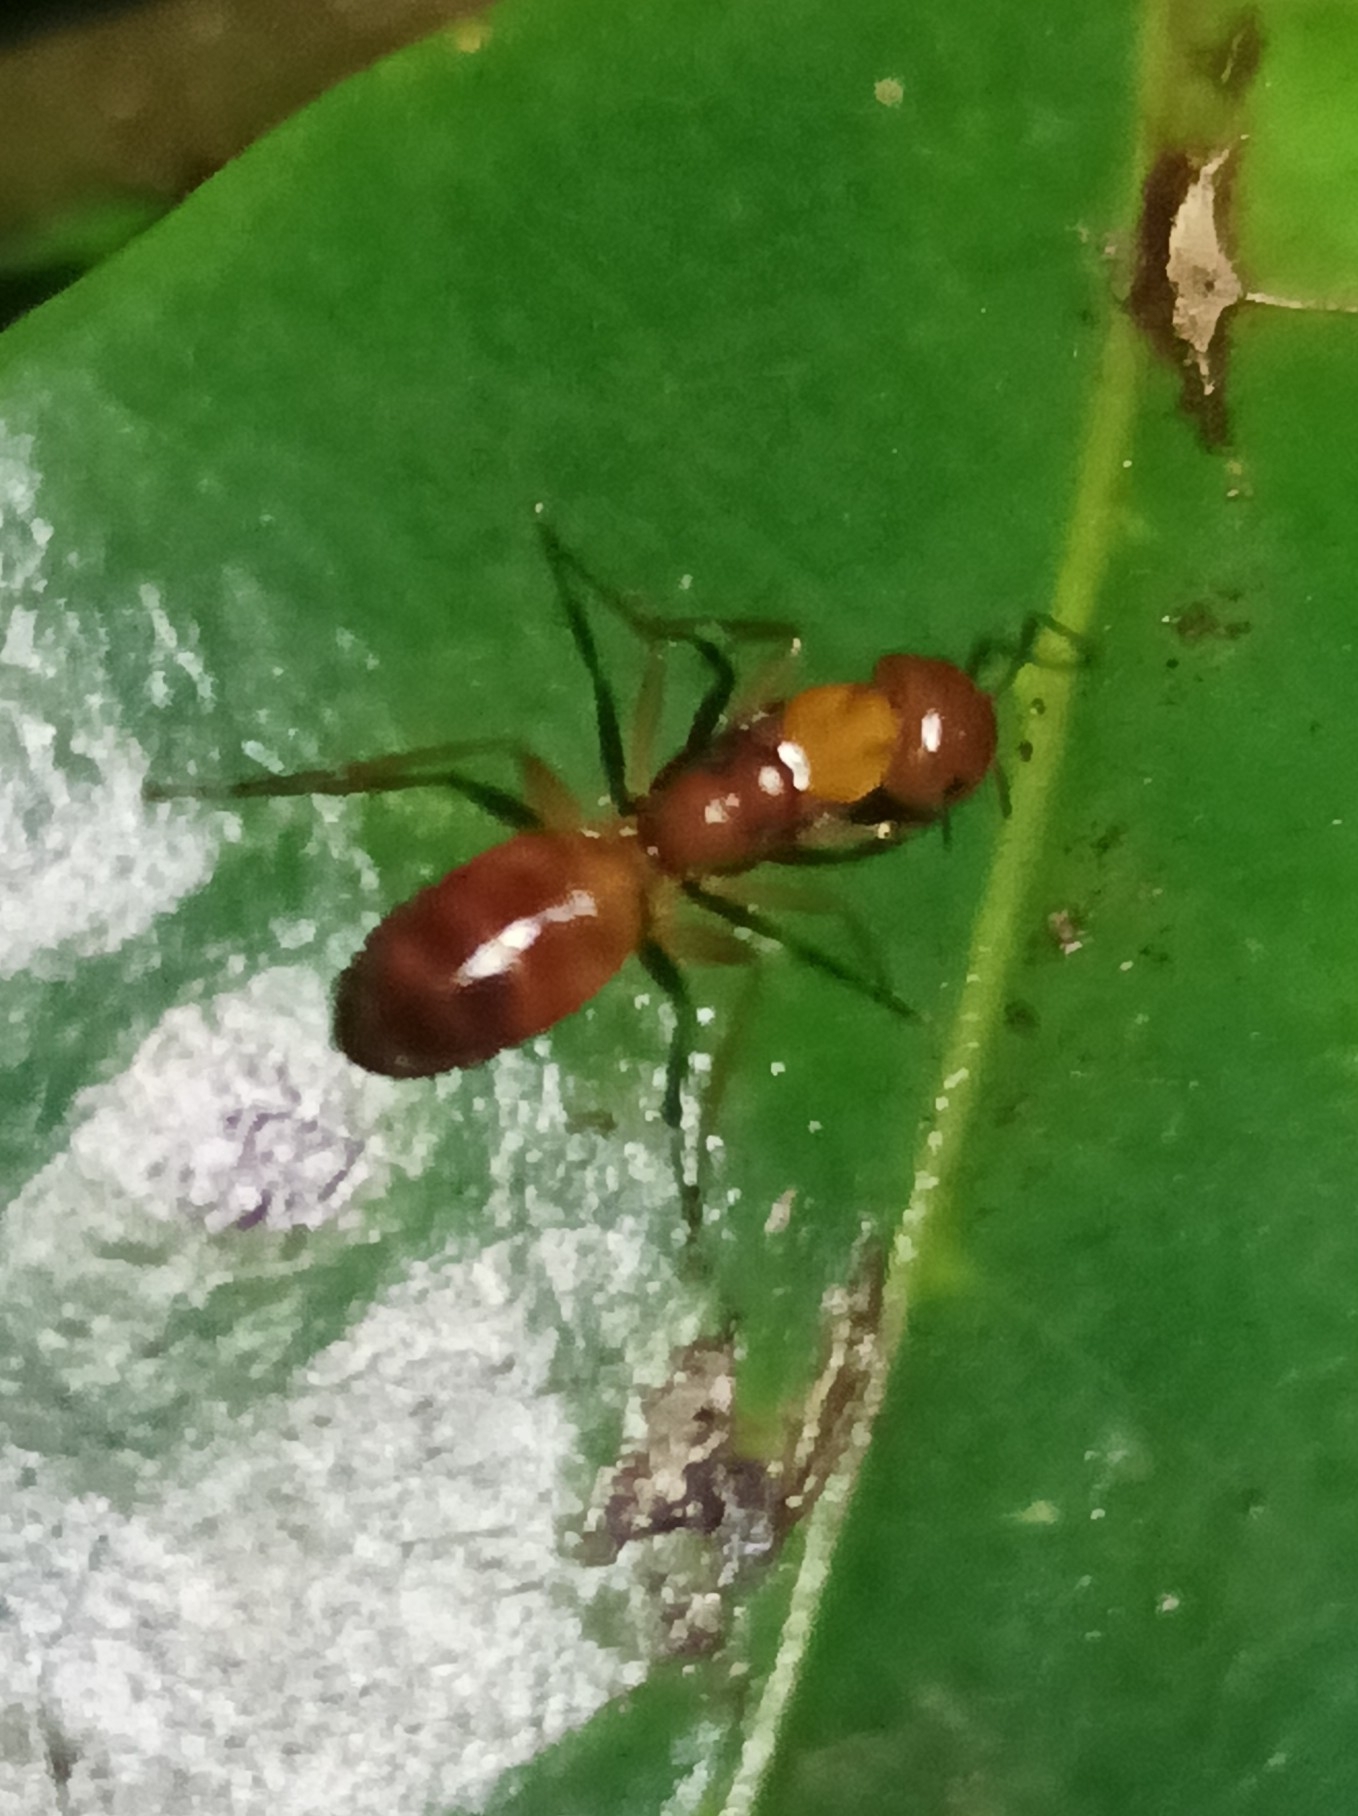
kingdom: Animalia
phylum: Arthropoda
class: Insecta
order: Hymenoptera
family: Formicidae
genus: Camponotus
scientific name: Camponotus chloroticus
